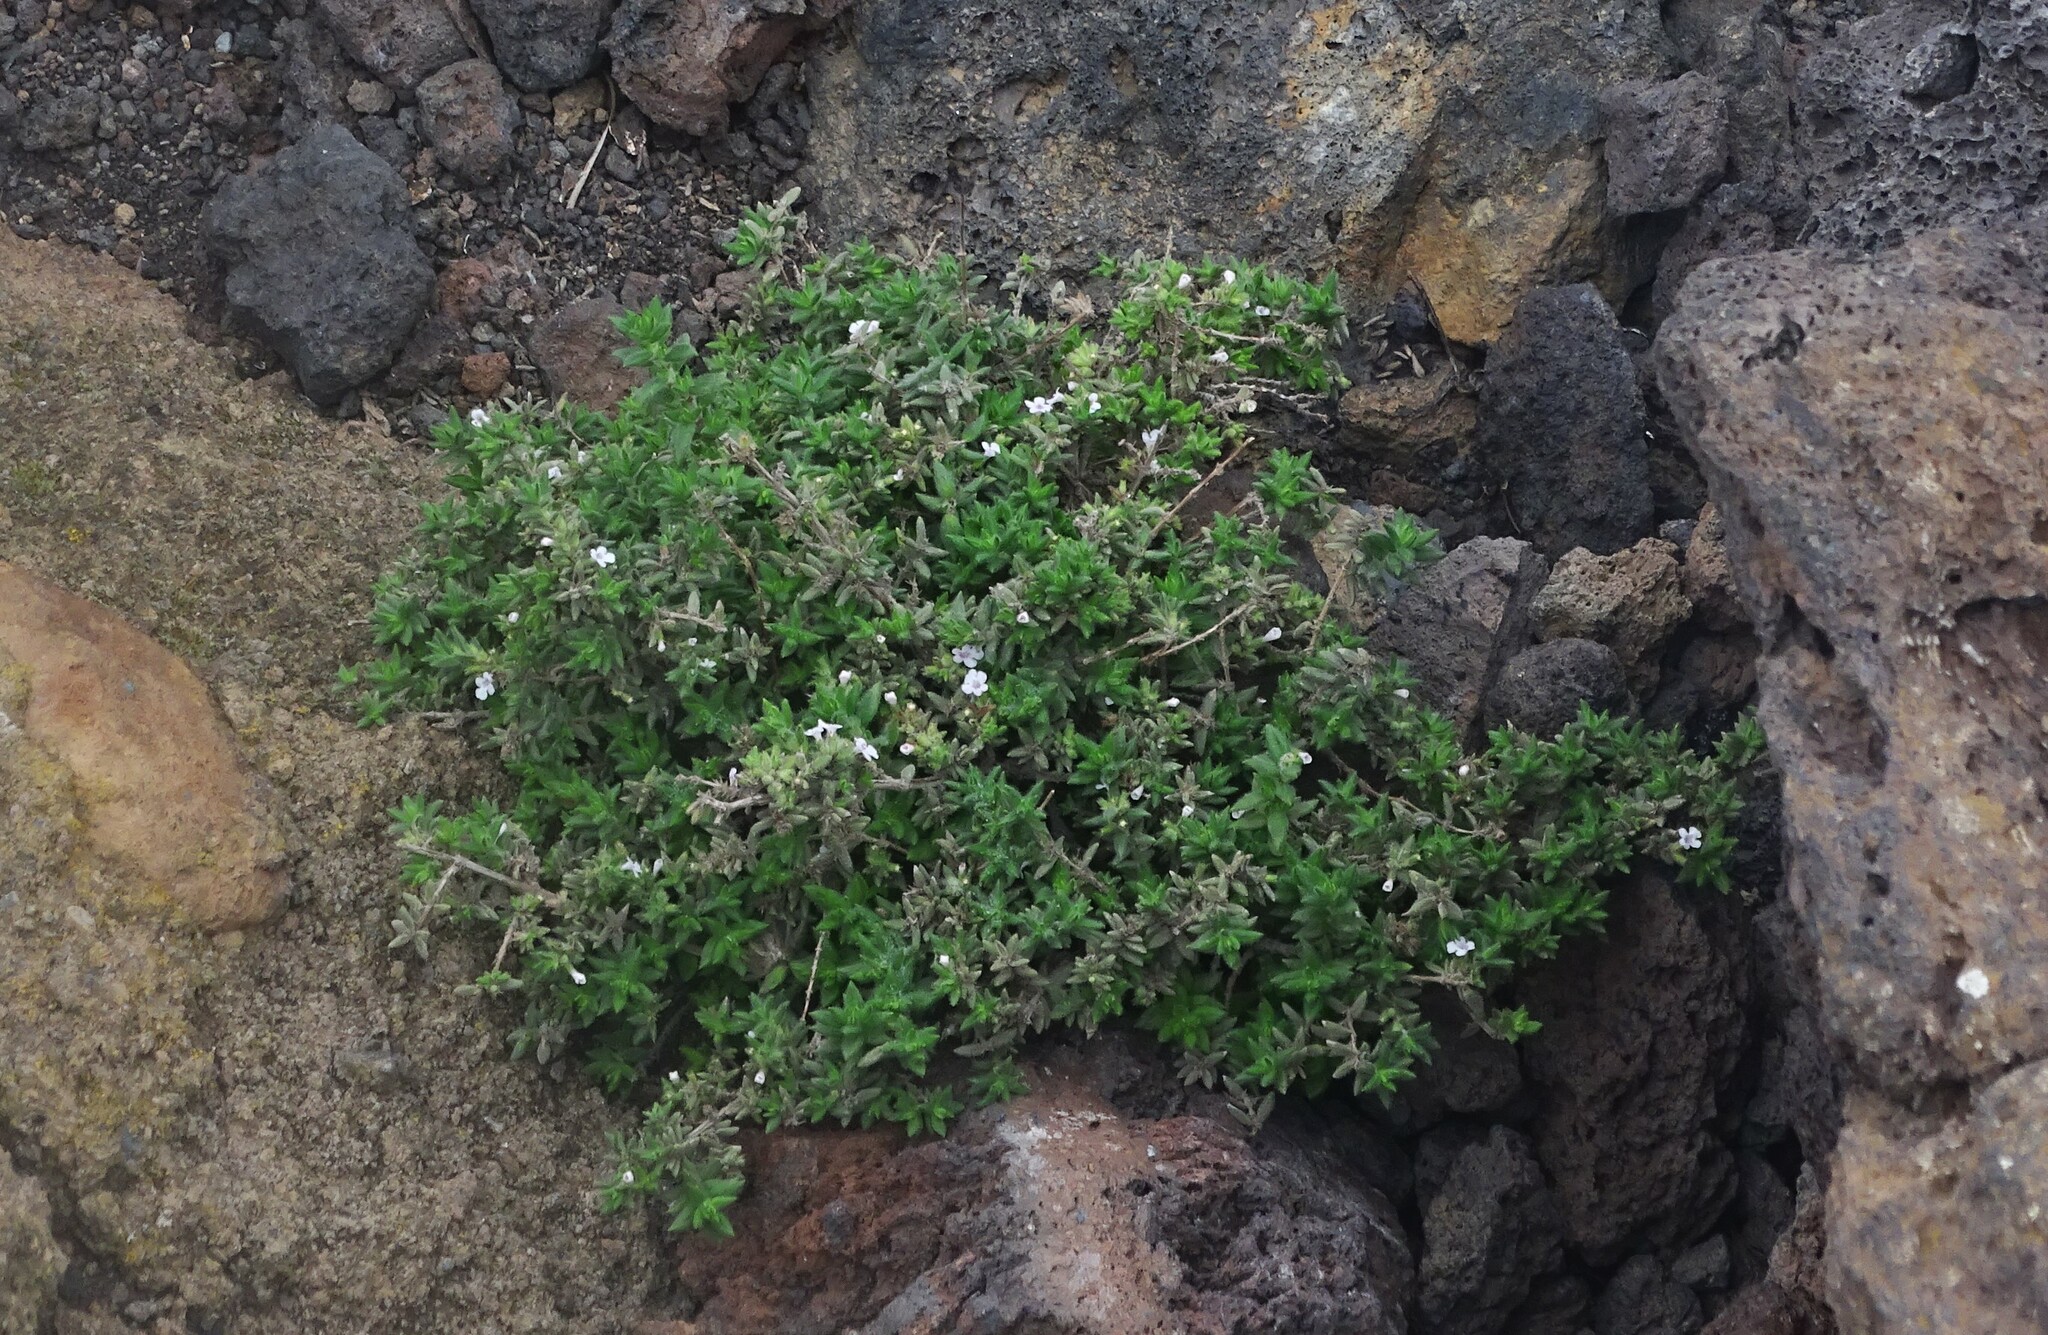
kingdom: Plantae
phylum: Tracheophyta
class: Magnoliopsida
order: Lamiales
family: Lamiaceae
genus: Micromeria
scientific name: Micromeria herpyllomorpha
